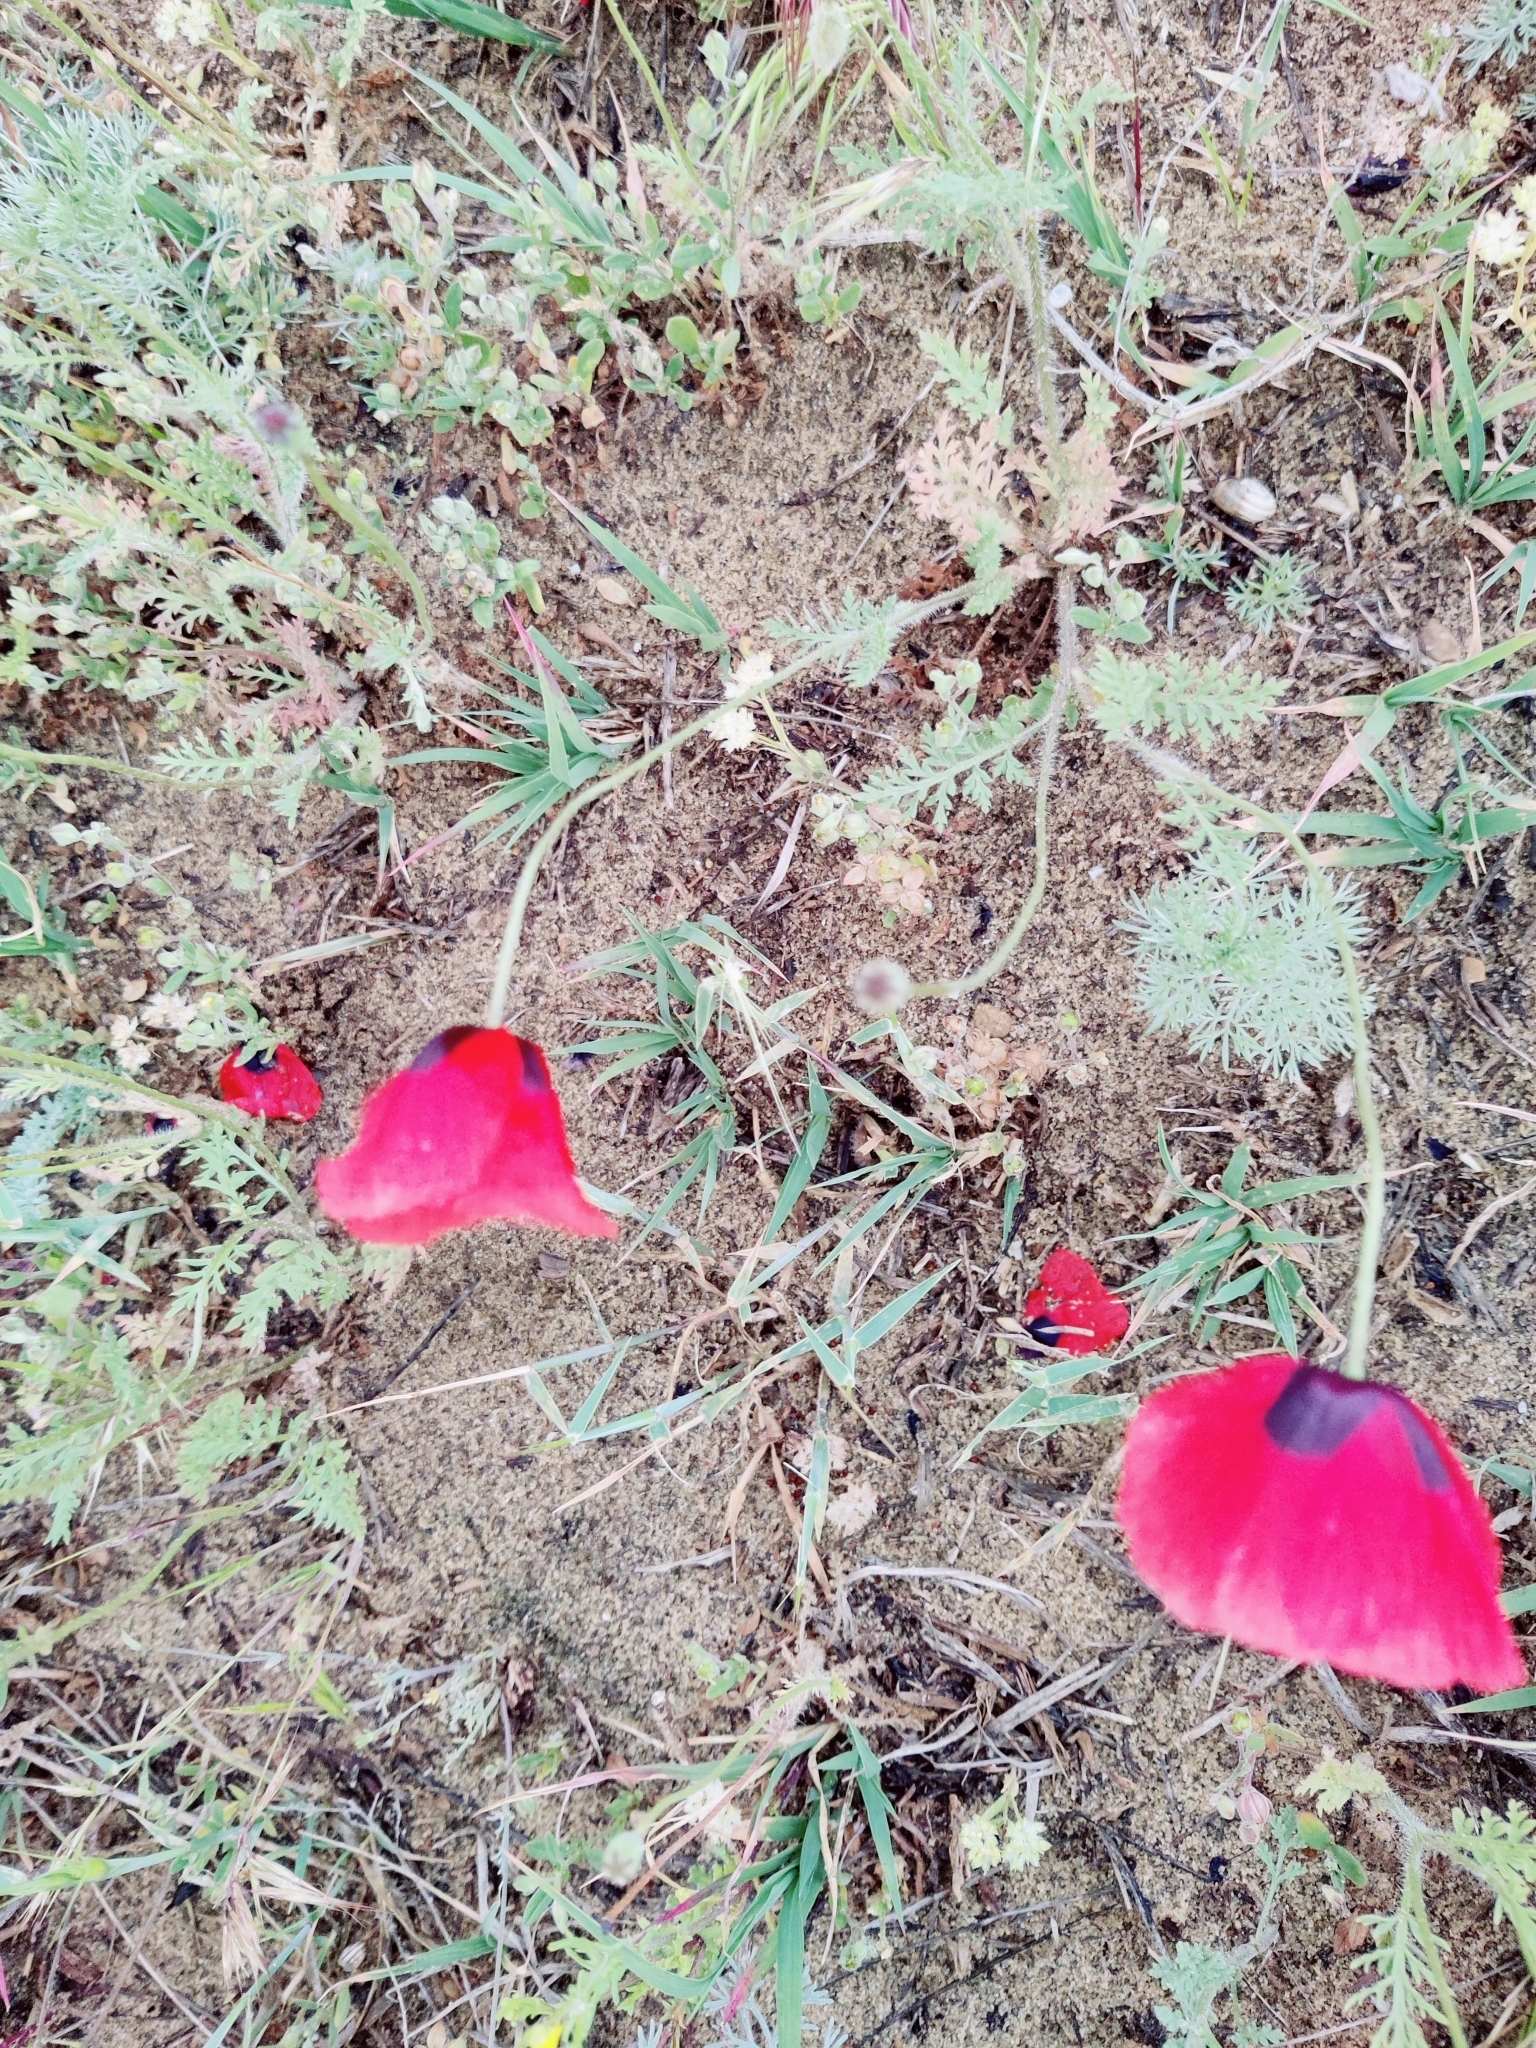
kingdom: Plantae
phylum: Tracheophyta
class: Magnoliopsida
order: Ranunculales
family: Papaveraceae
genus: Papaver
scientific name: Papaver arenarium
